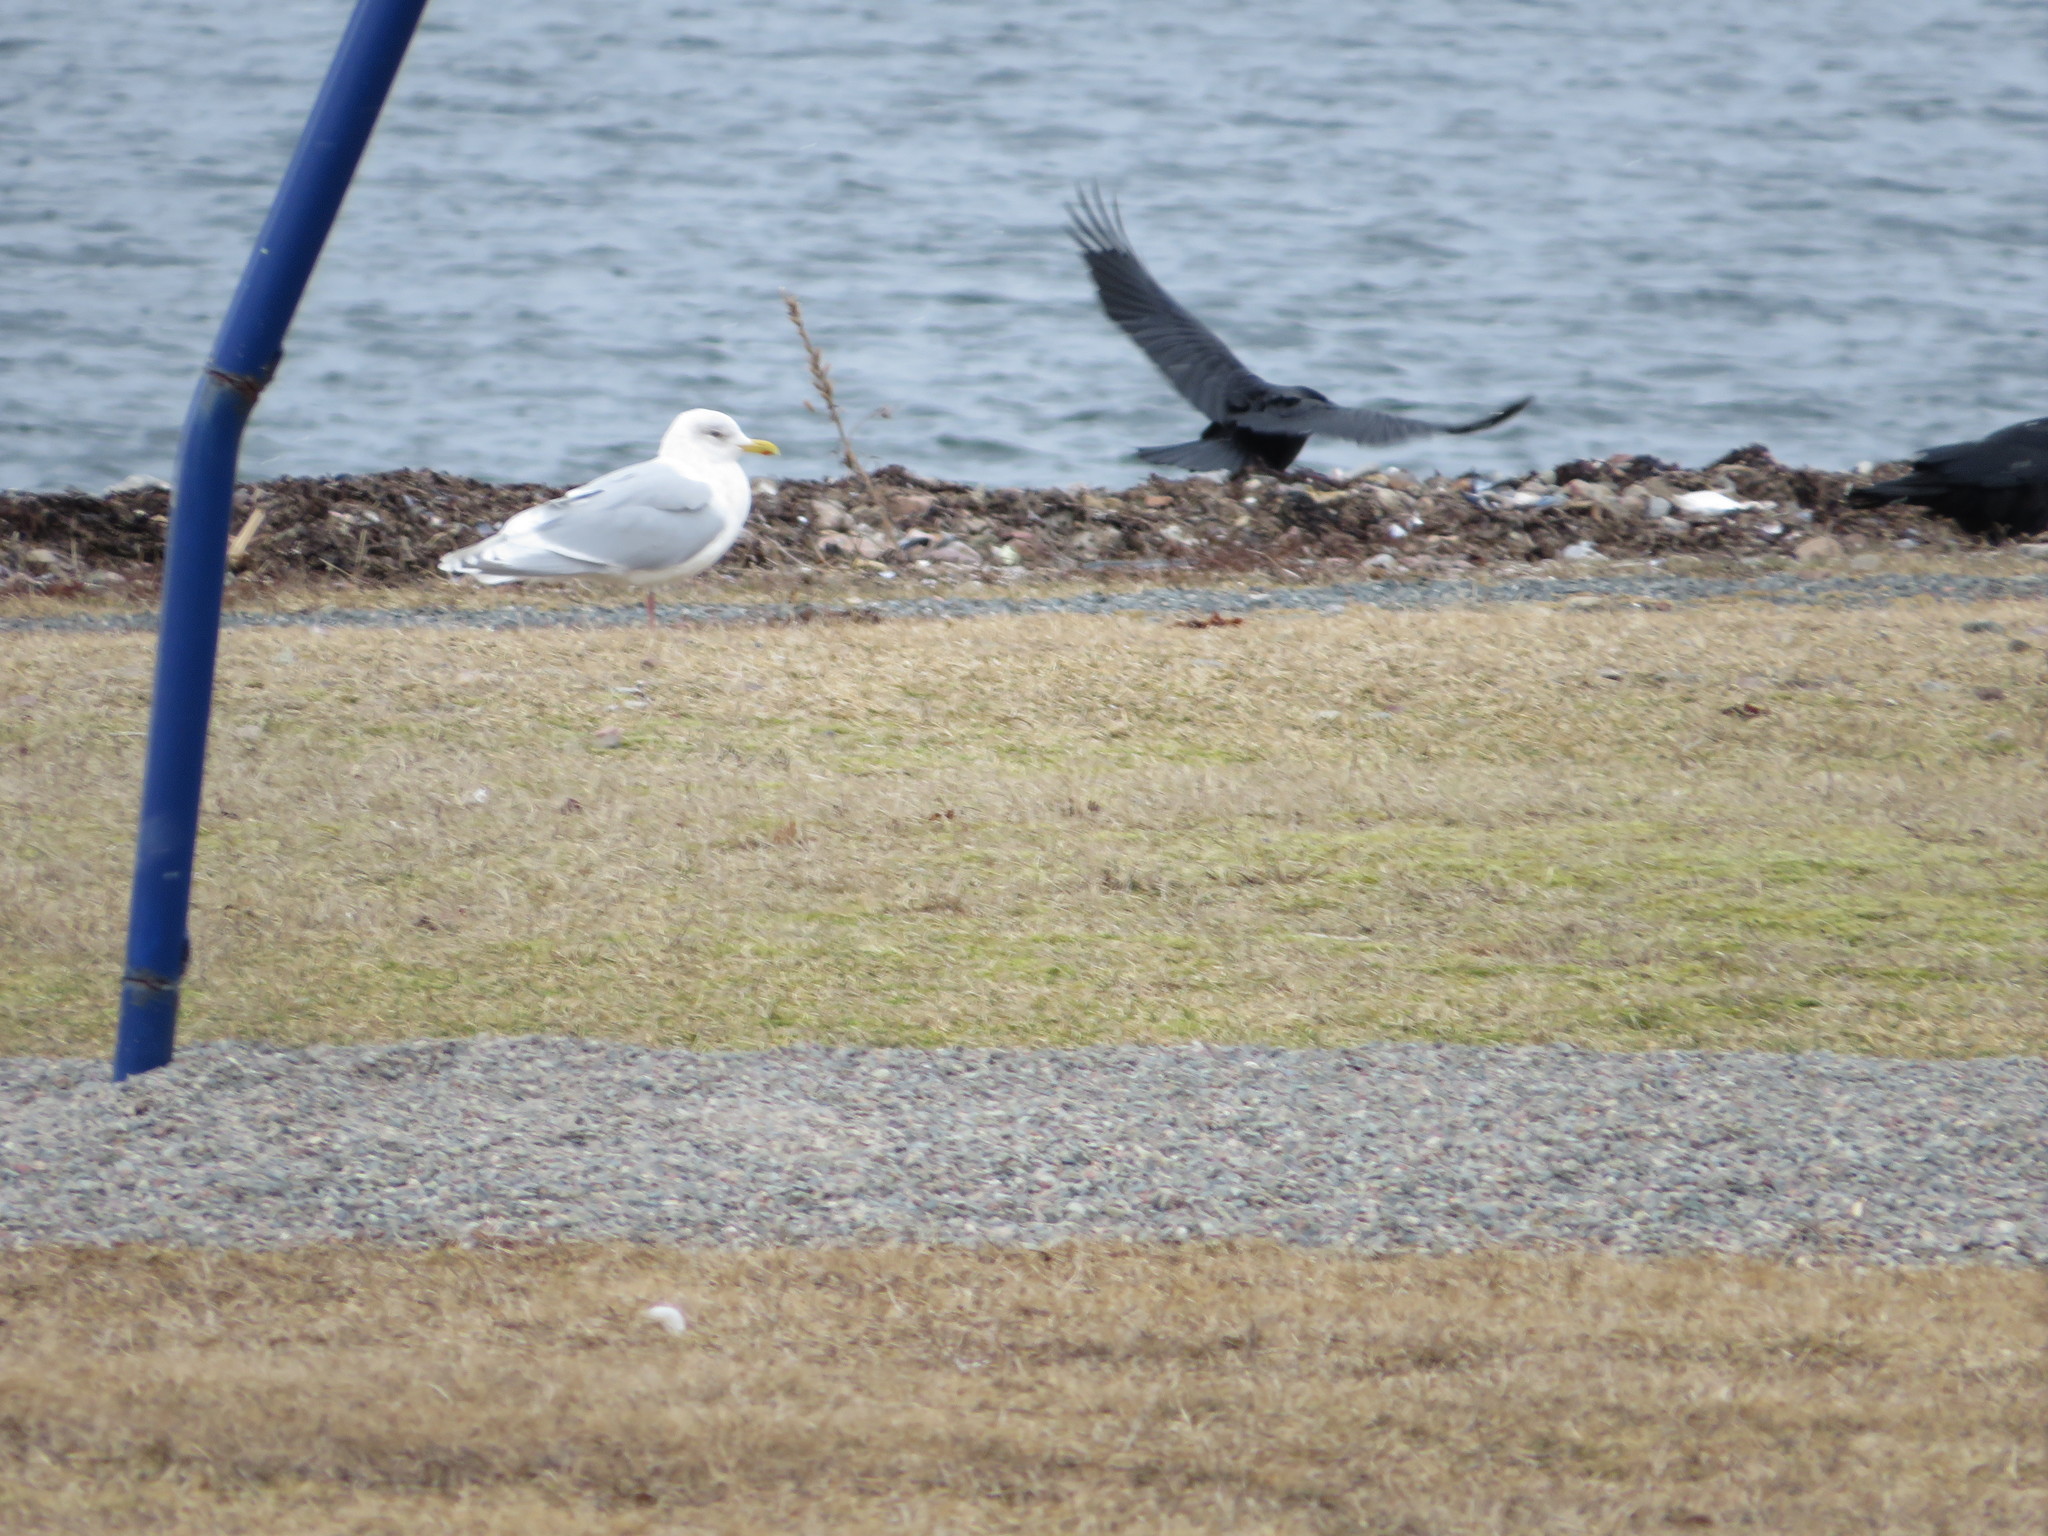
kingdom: Animalia
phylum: Chordata
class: Aves
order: Passeriformes
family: Corvidae
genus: Corvus
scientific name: Corvus brachyrhynchos
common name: American crow
